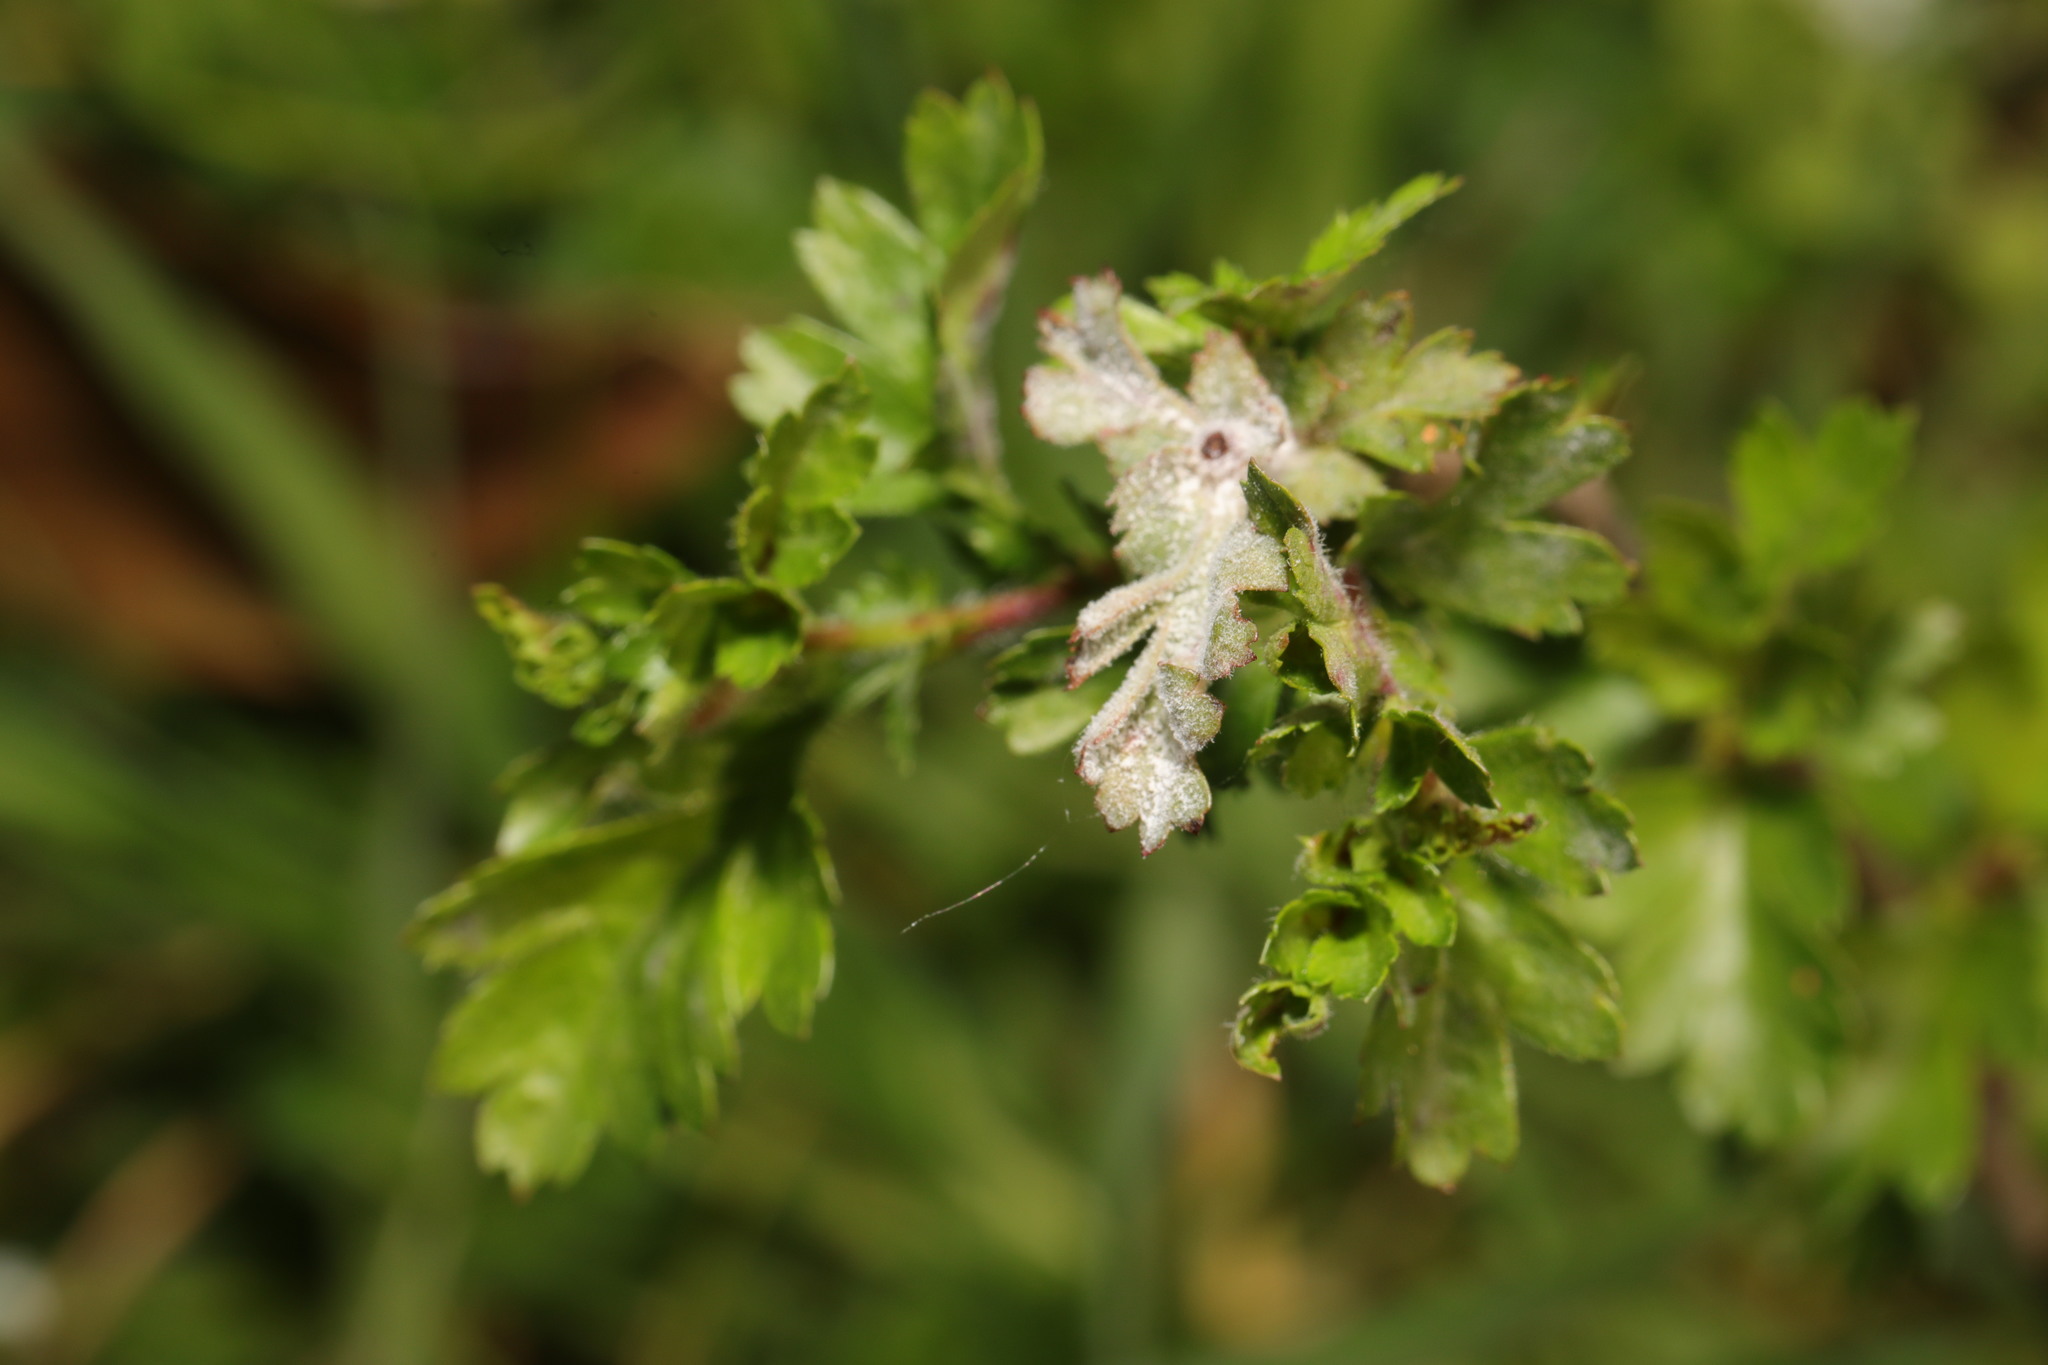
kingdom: Fungi
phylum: Ascomycota
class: Leotiomycetes
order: Helotiales
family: Erysiphaceae
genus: Podosphaera
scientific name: Podosphaera clandestina
